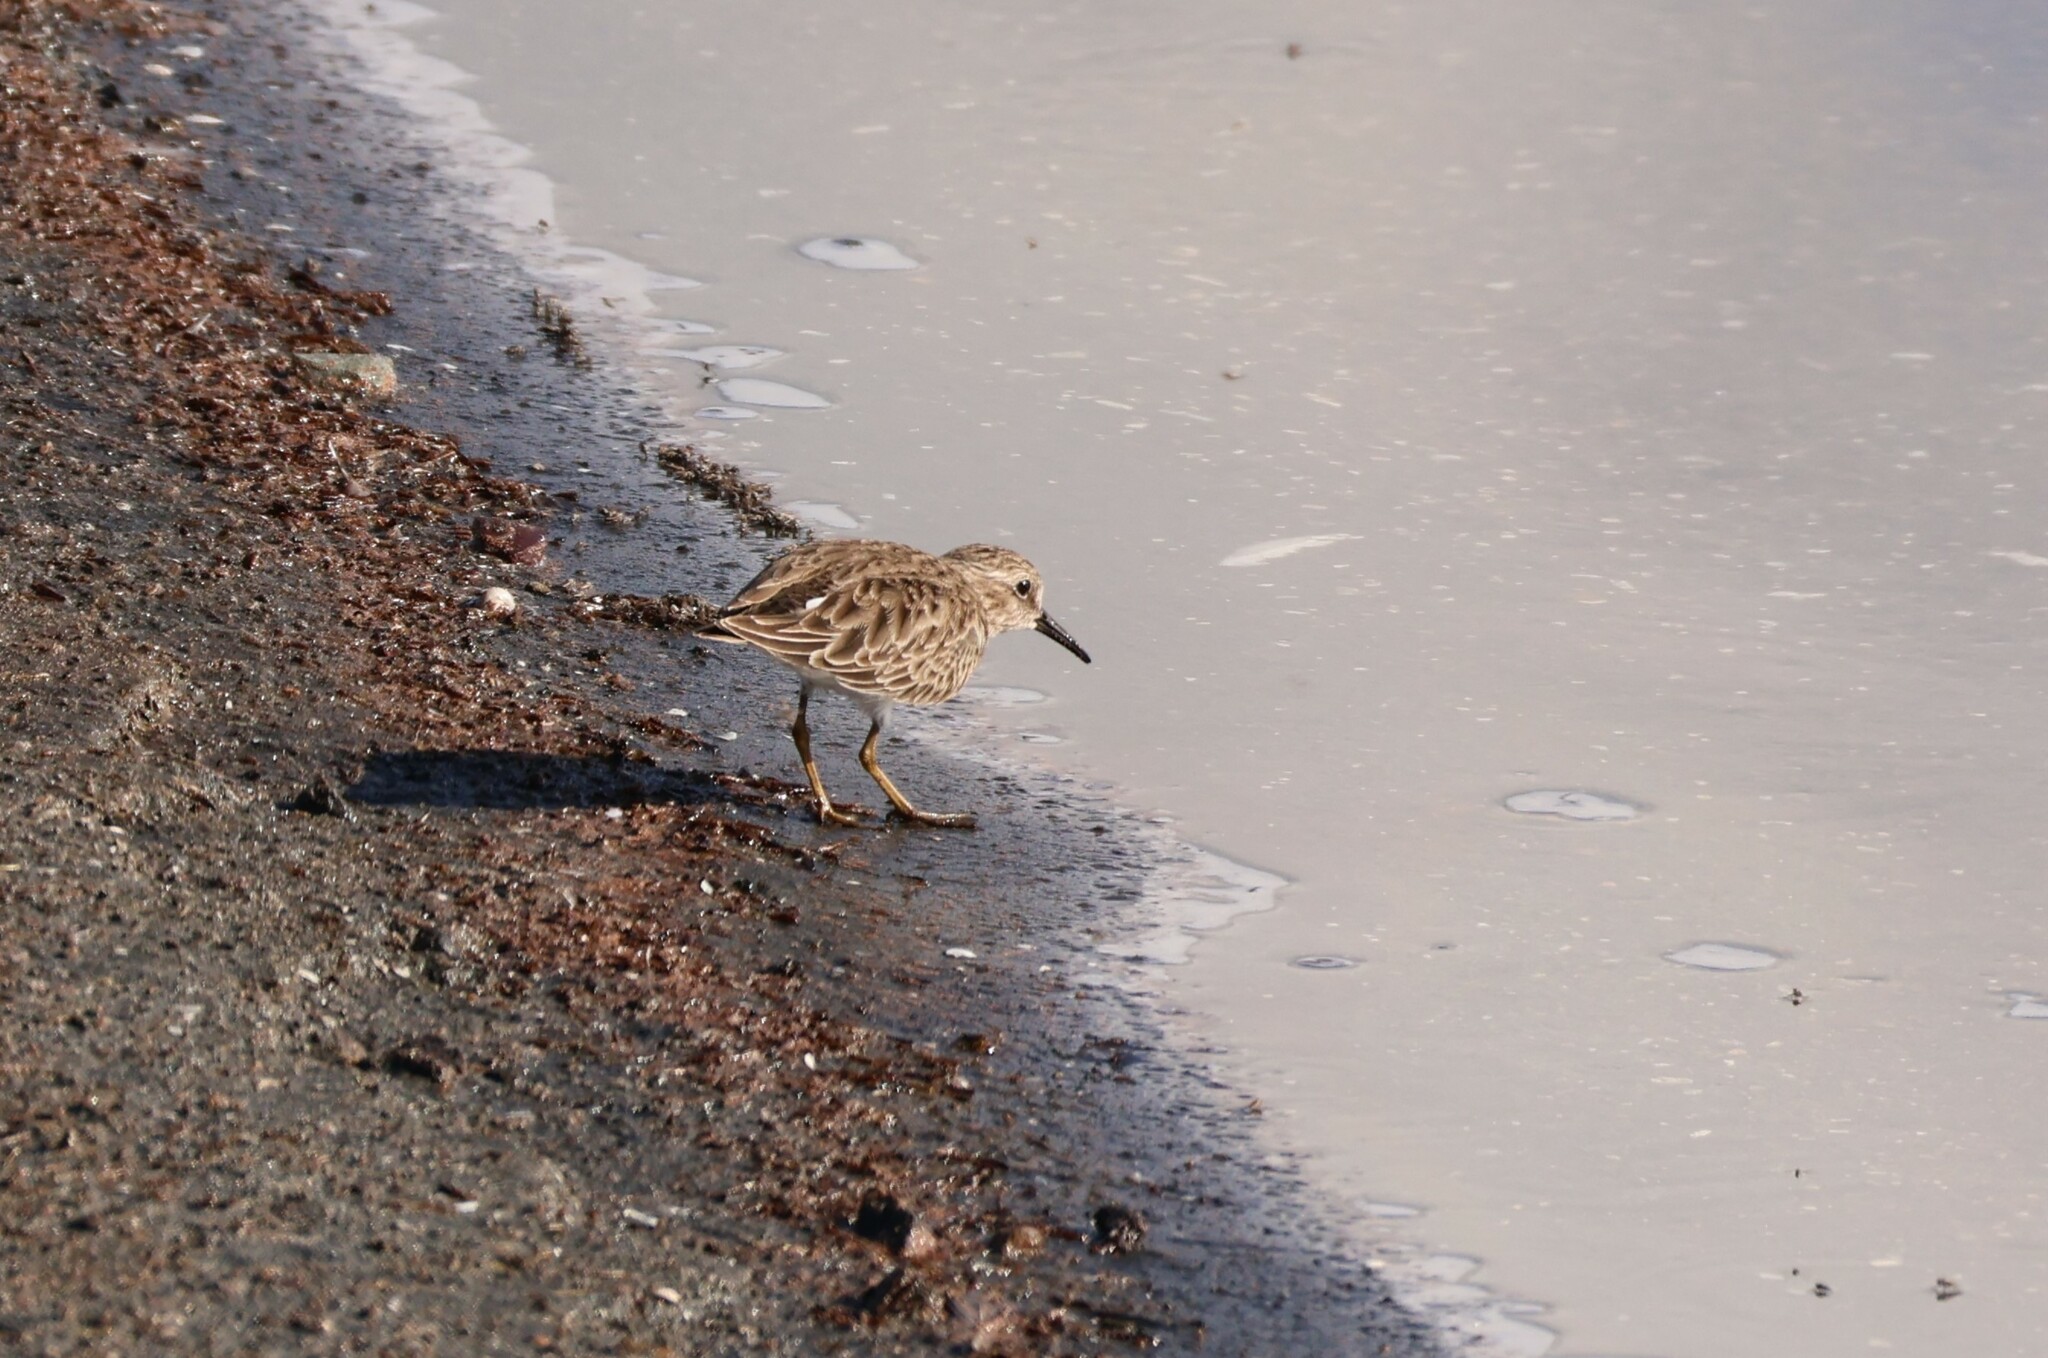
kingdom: Animalia
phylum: Chordata
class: Aves
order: Charadriiformes
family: Scolopacidae
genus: Calidris
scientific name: Calidris minutilla
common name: Least sandpiper
